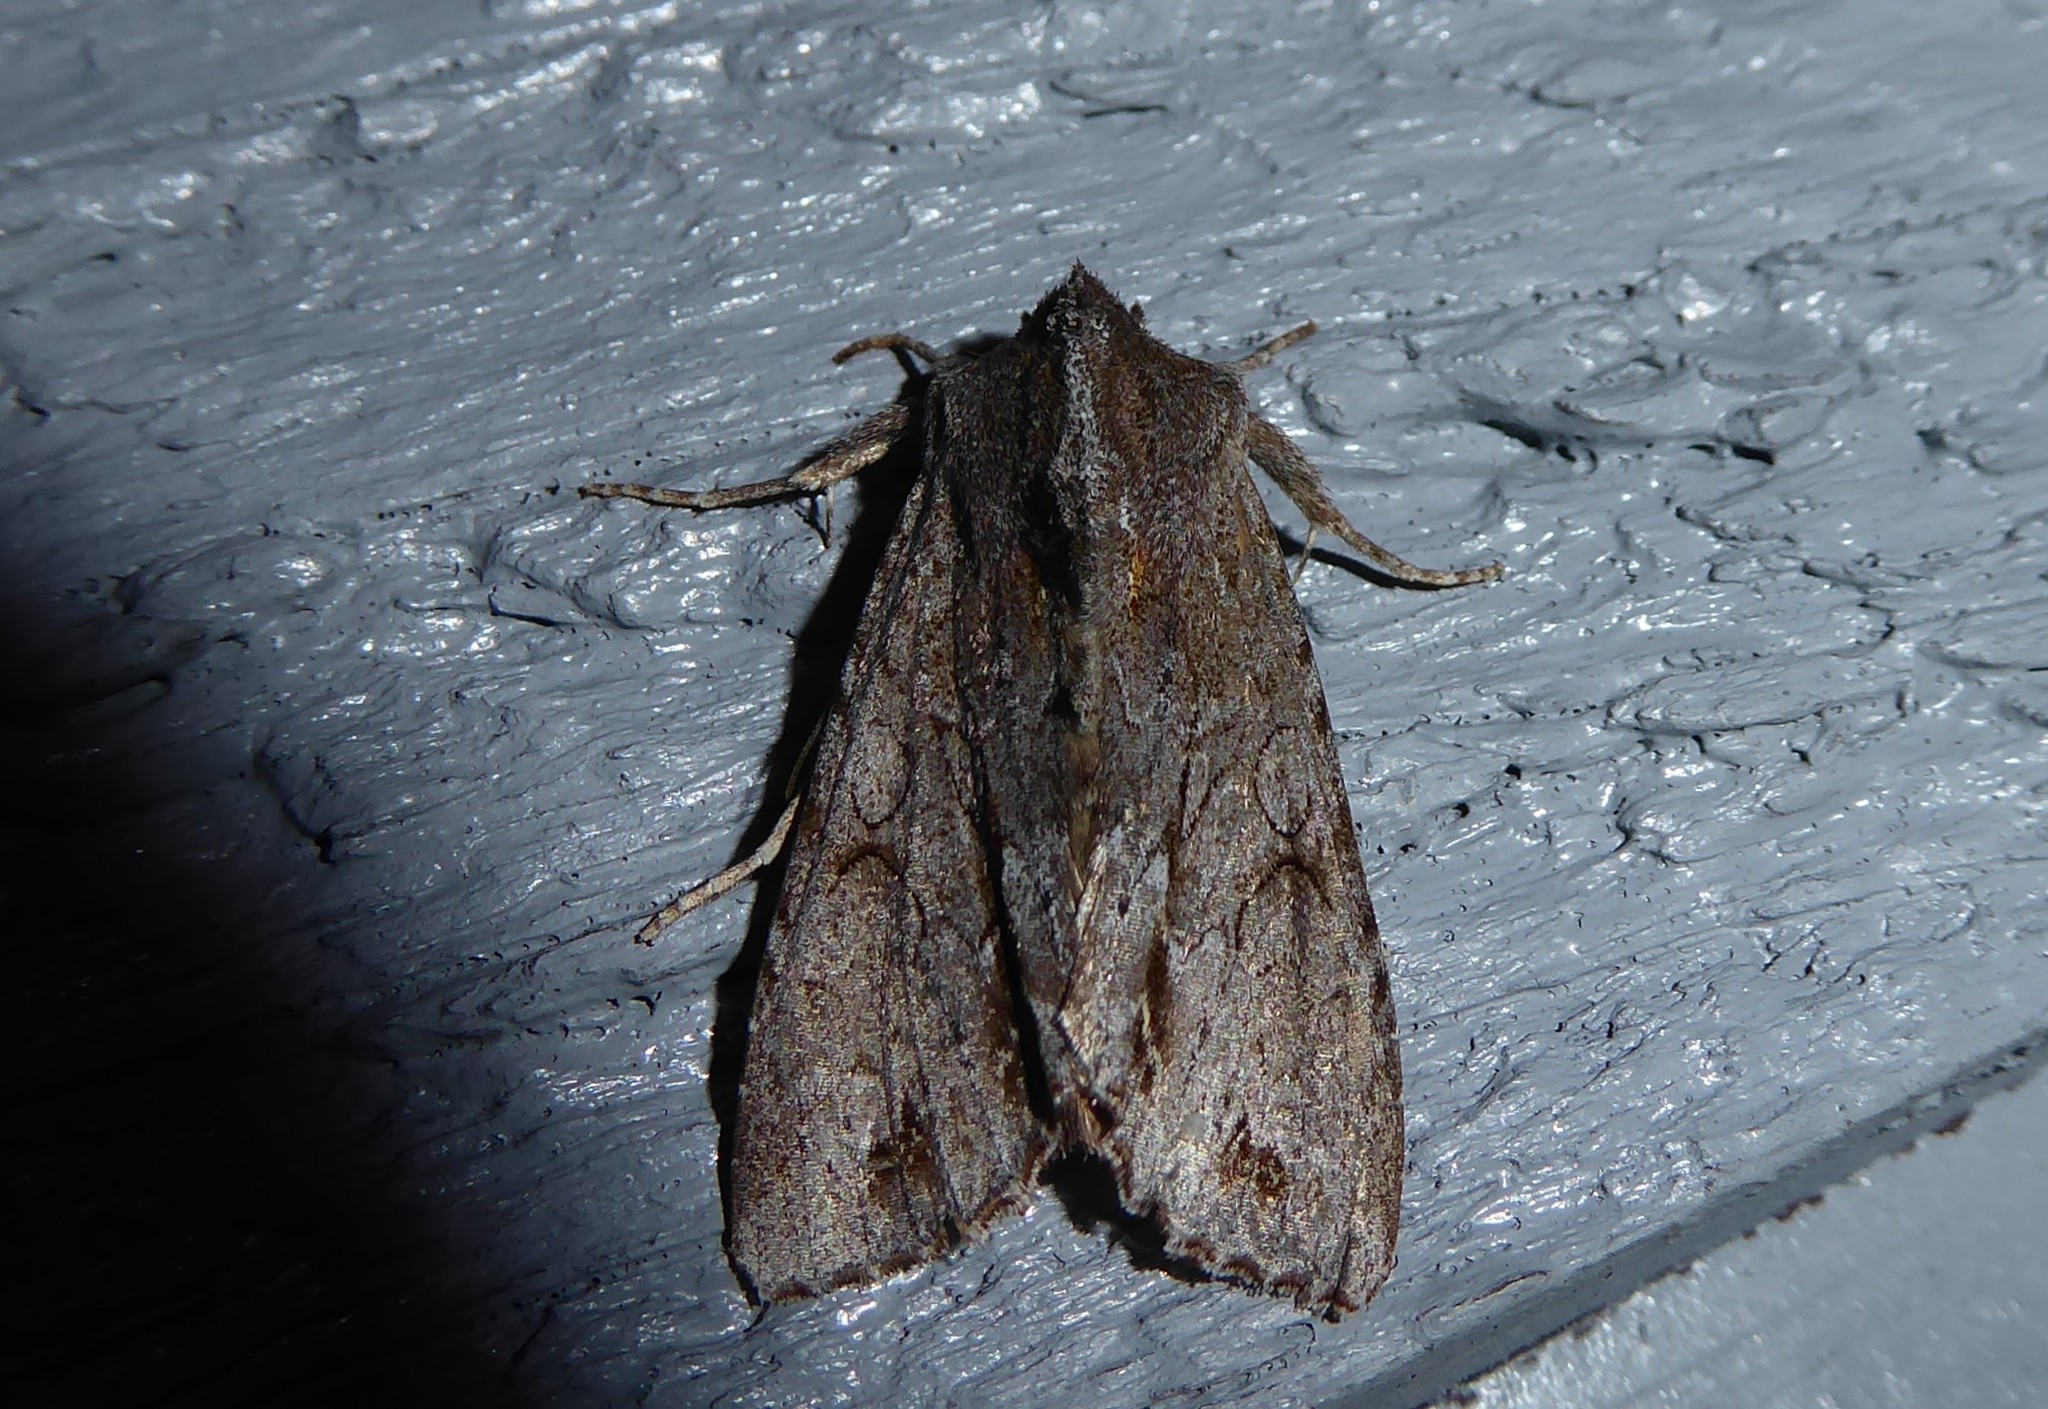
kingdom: Animalia
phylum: Arthropoda
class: Insecta
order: Lepidoptera
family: Noctuidae
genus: Ichneutica
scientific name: Ichneutica
